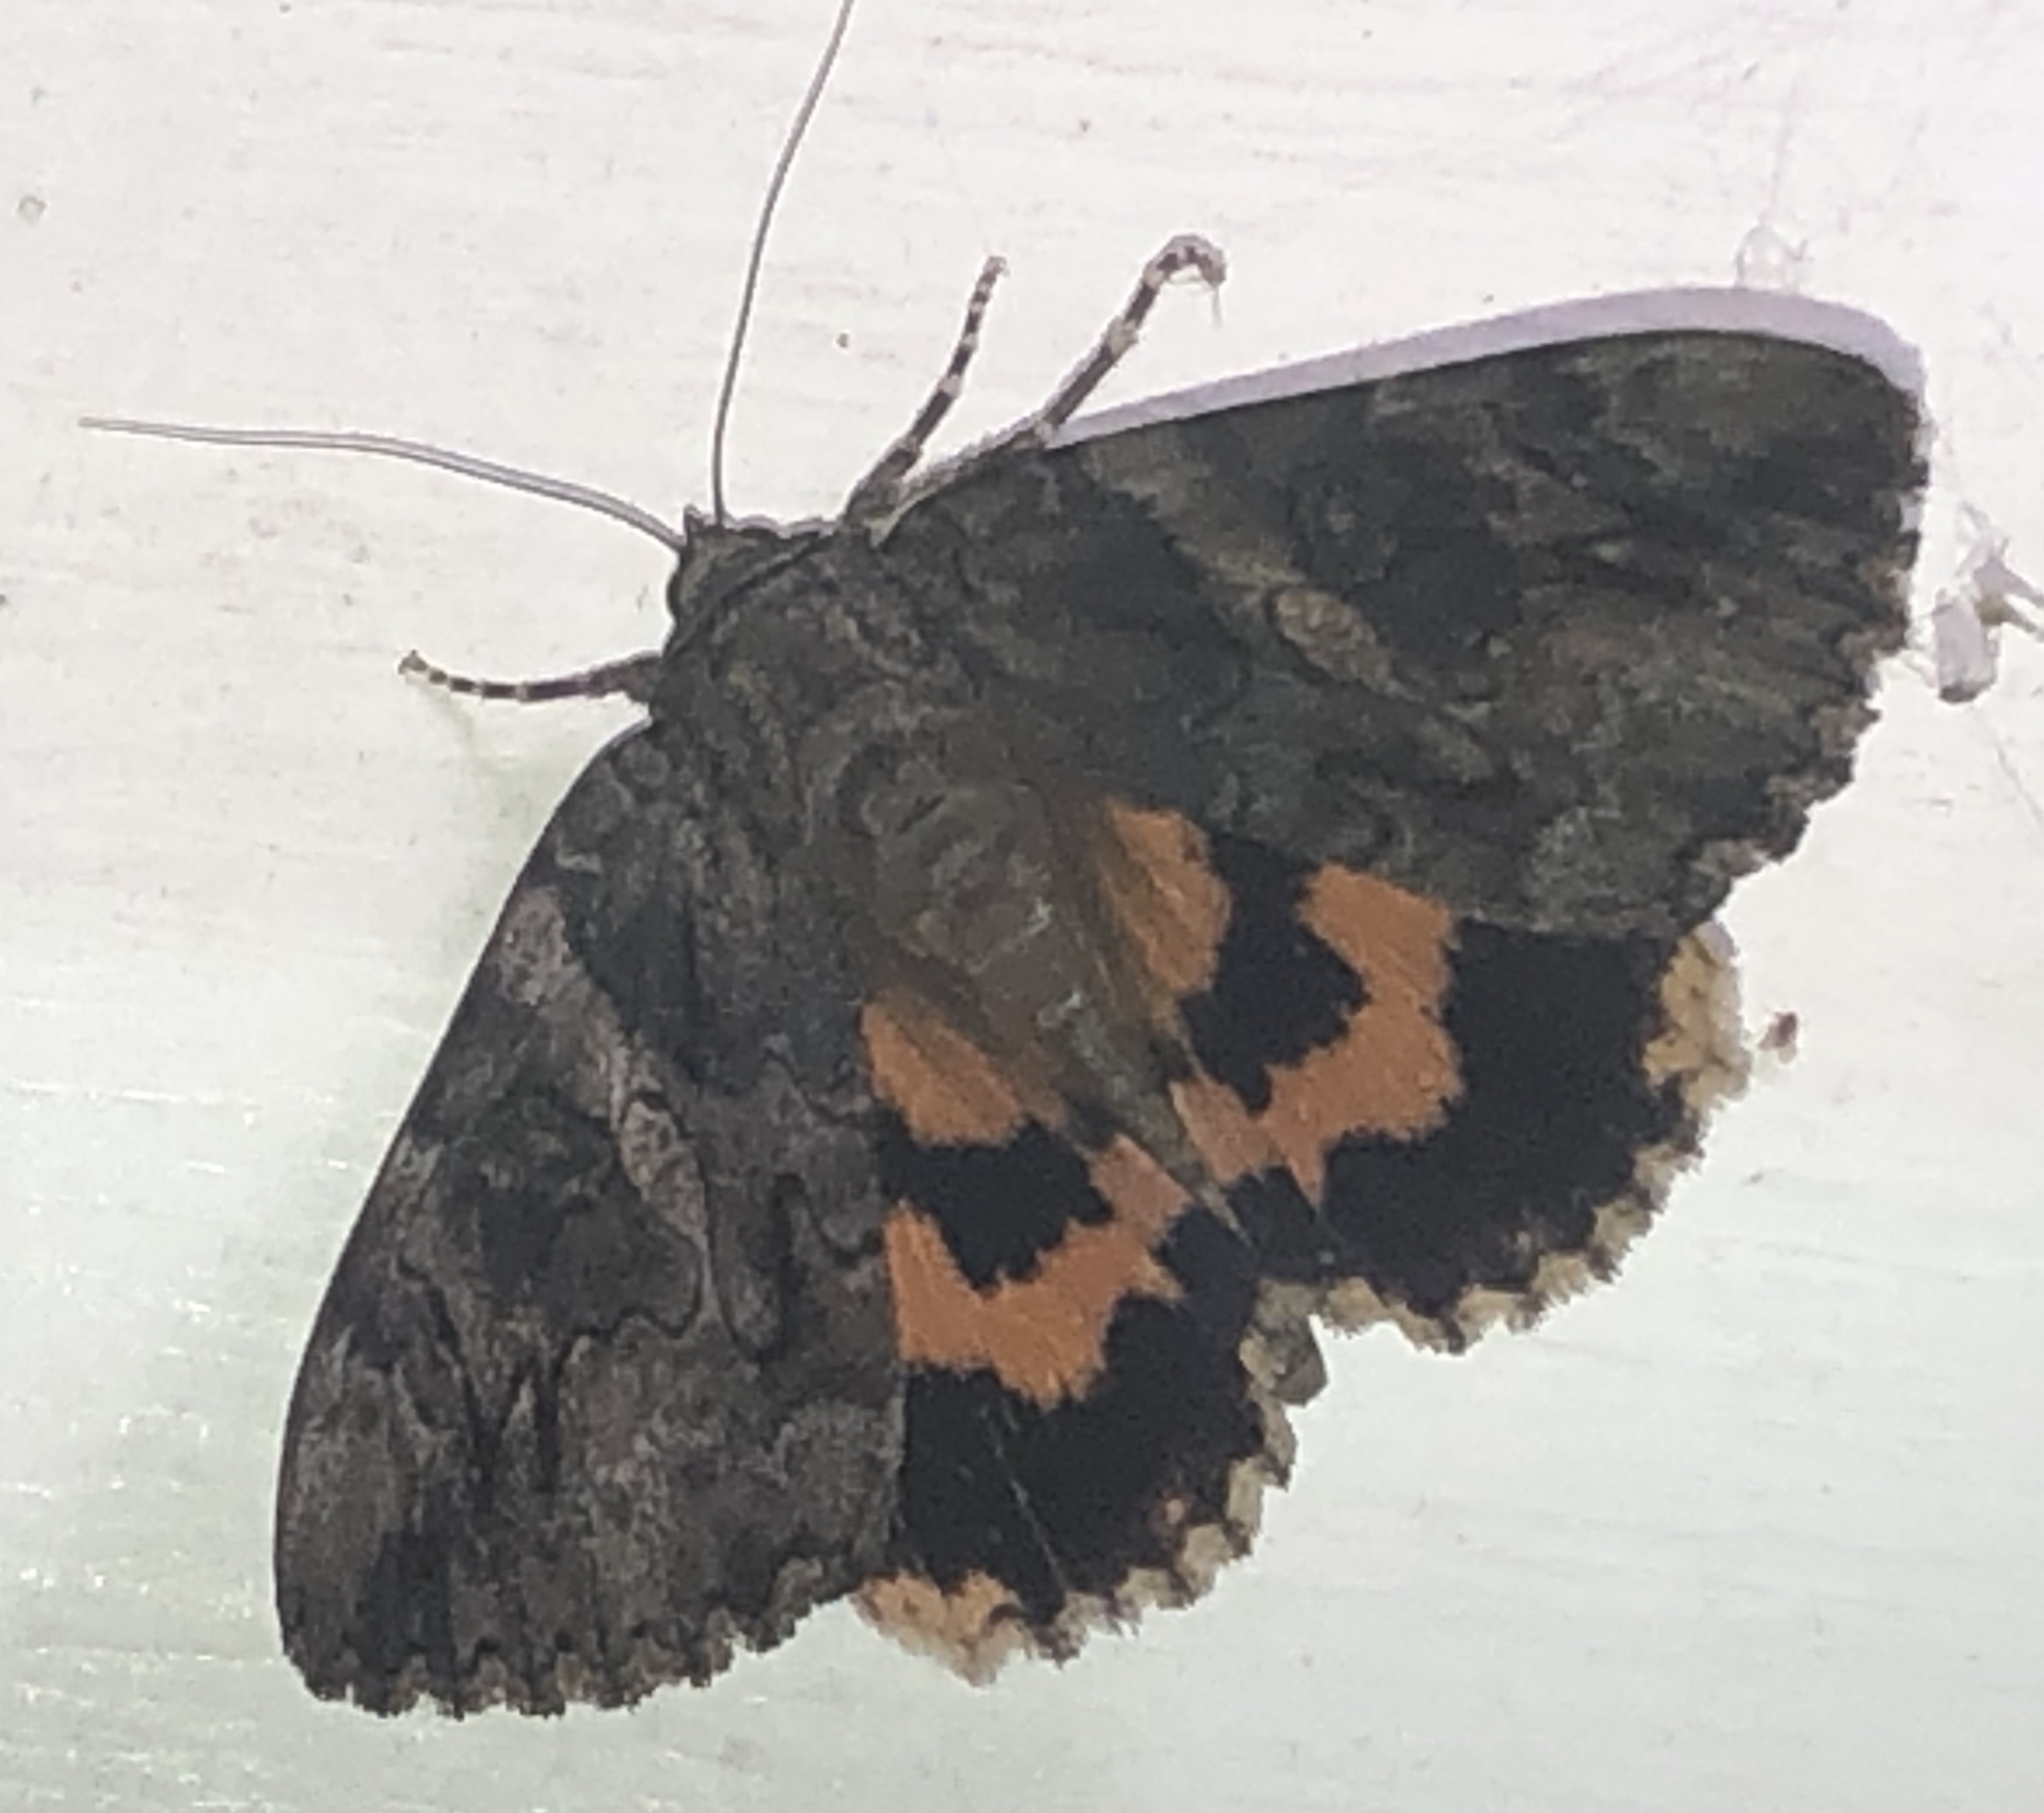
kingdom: Animalia
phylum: Arthropoda
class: Insecta
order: Lepidoptera
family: Erebidae
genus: Catocala
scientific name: Catocala piatrix
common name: The penitent underwing
